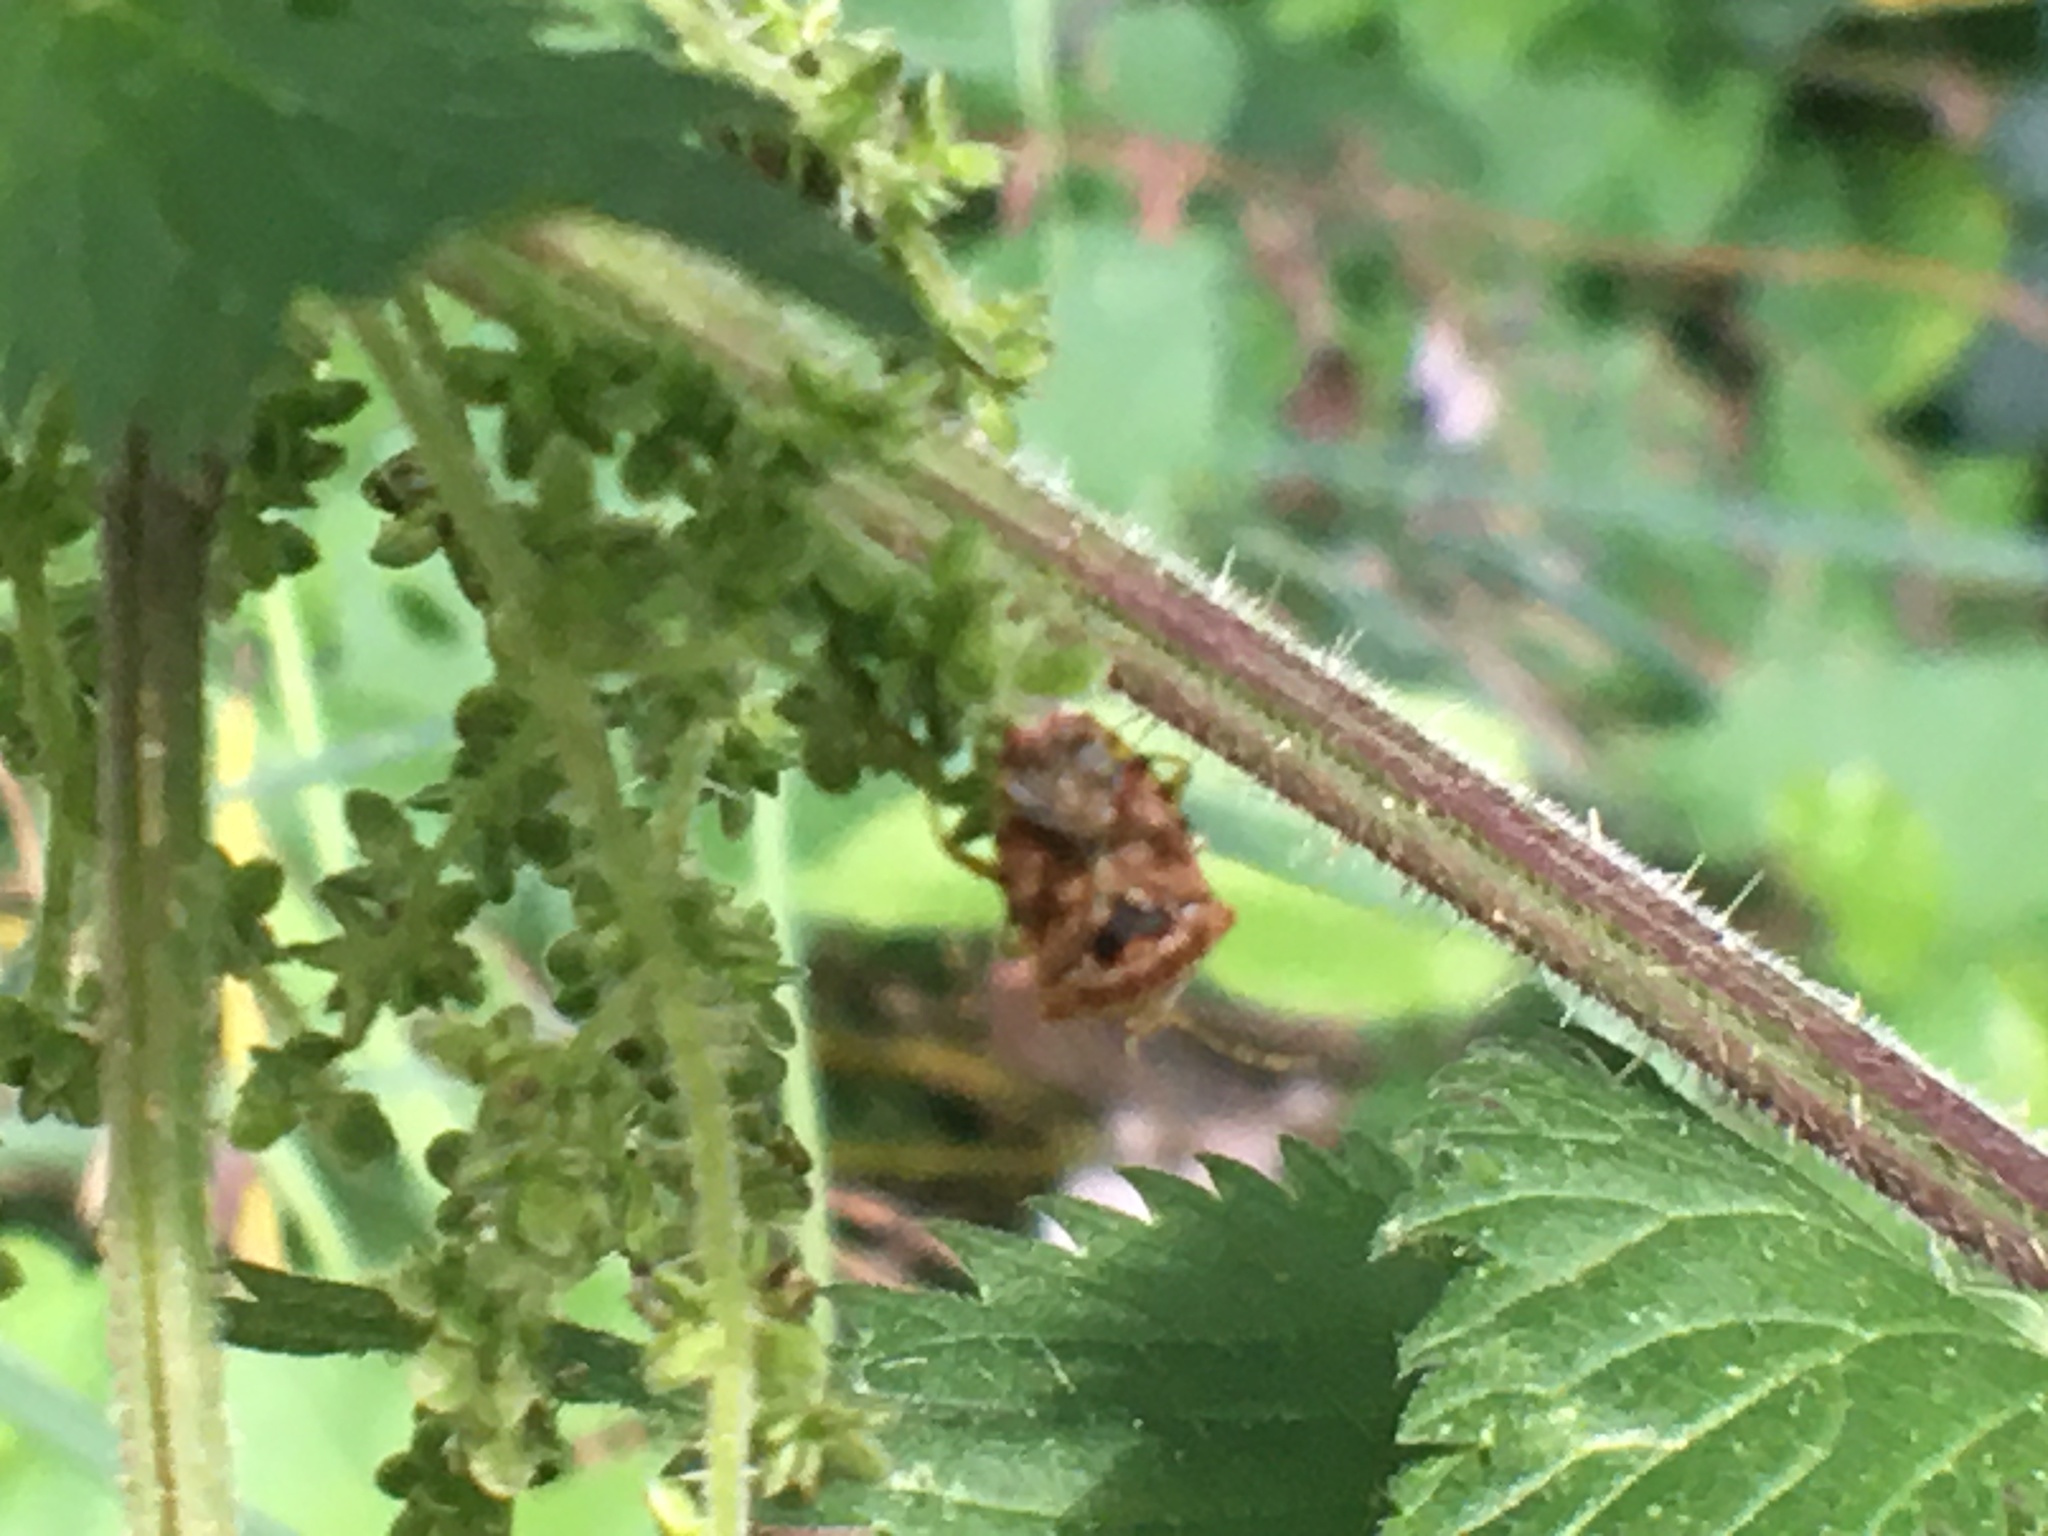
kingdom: Animalia
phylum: Arthropoda
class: Insecta
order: Hemiptera
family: Acanthosomatidae
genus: Elasmucha
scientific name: Elasmucha grisea
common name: Parent bug
